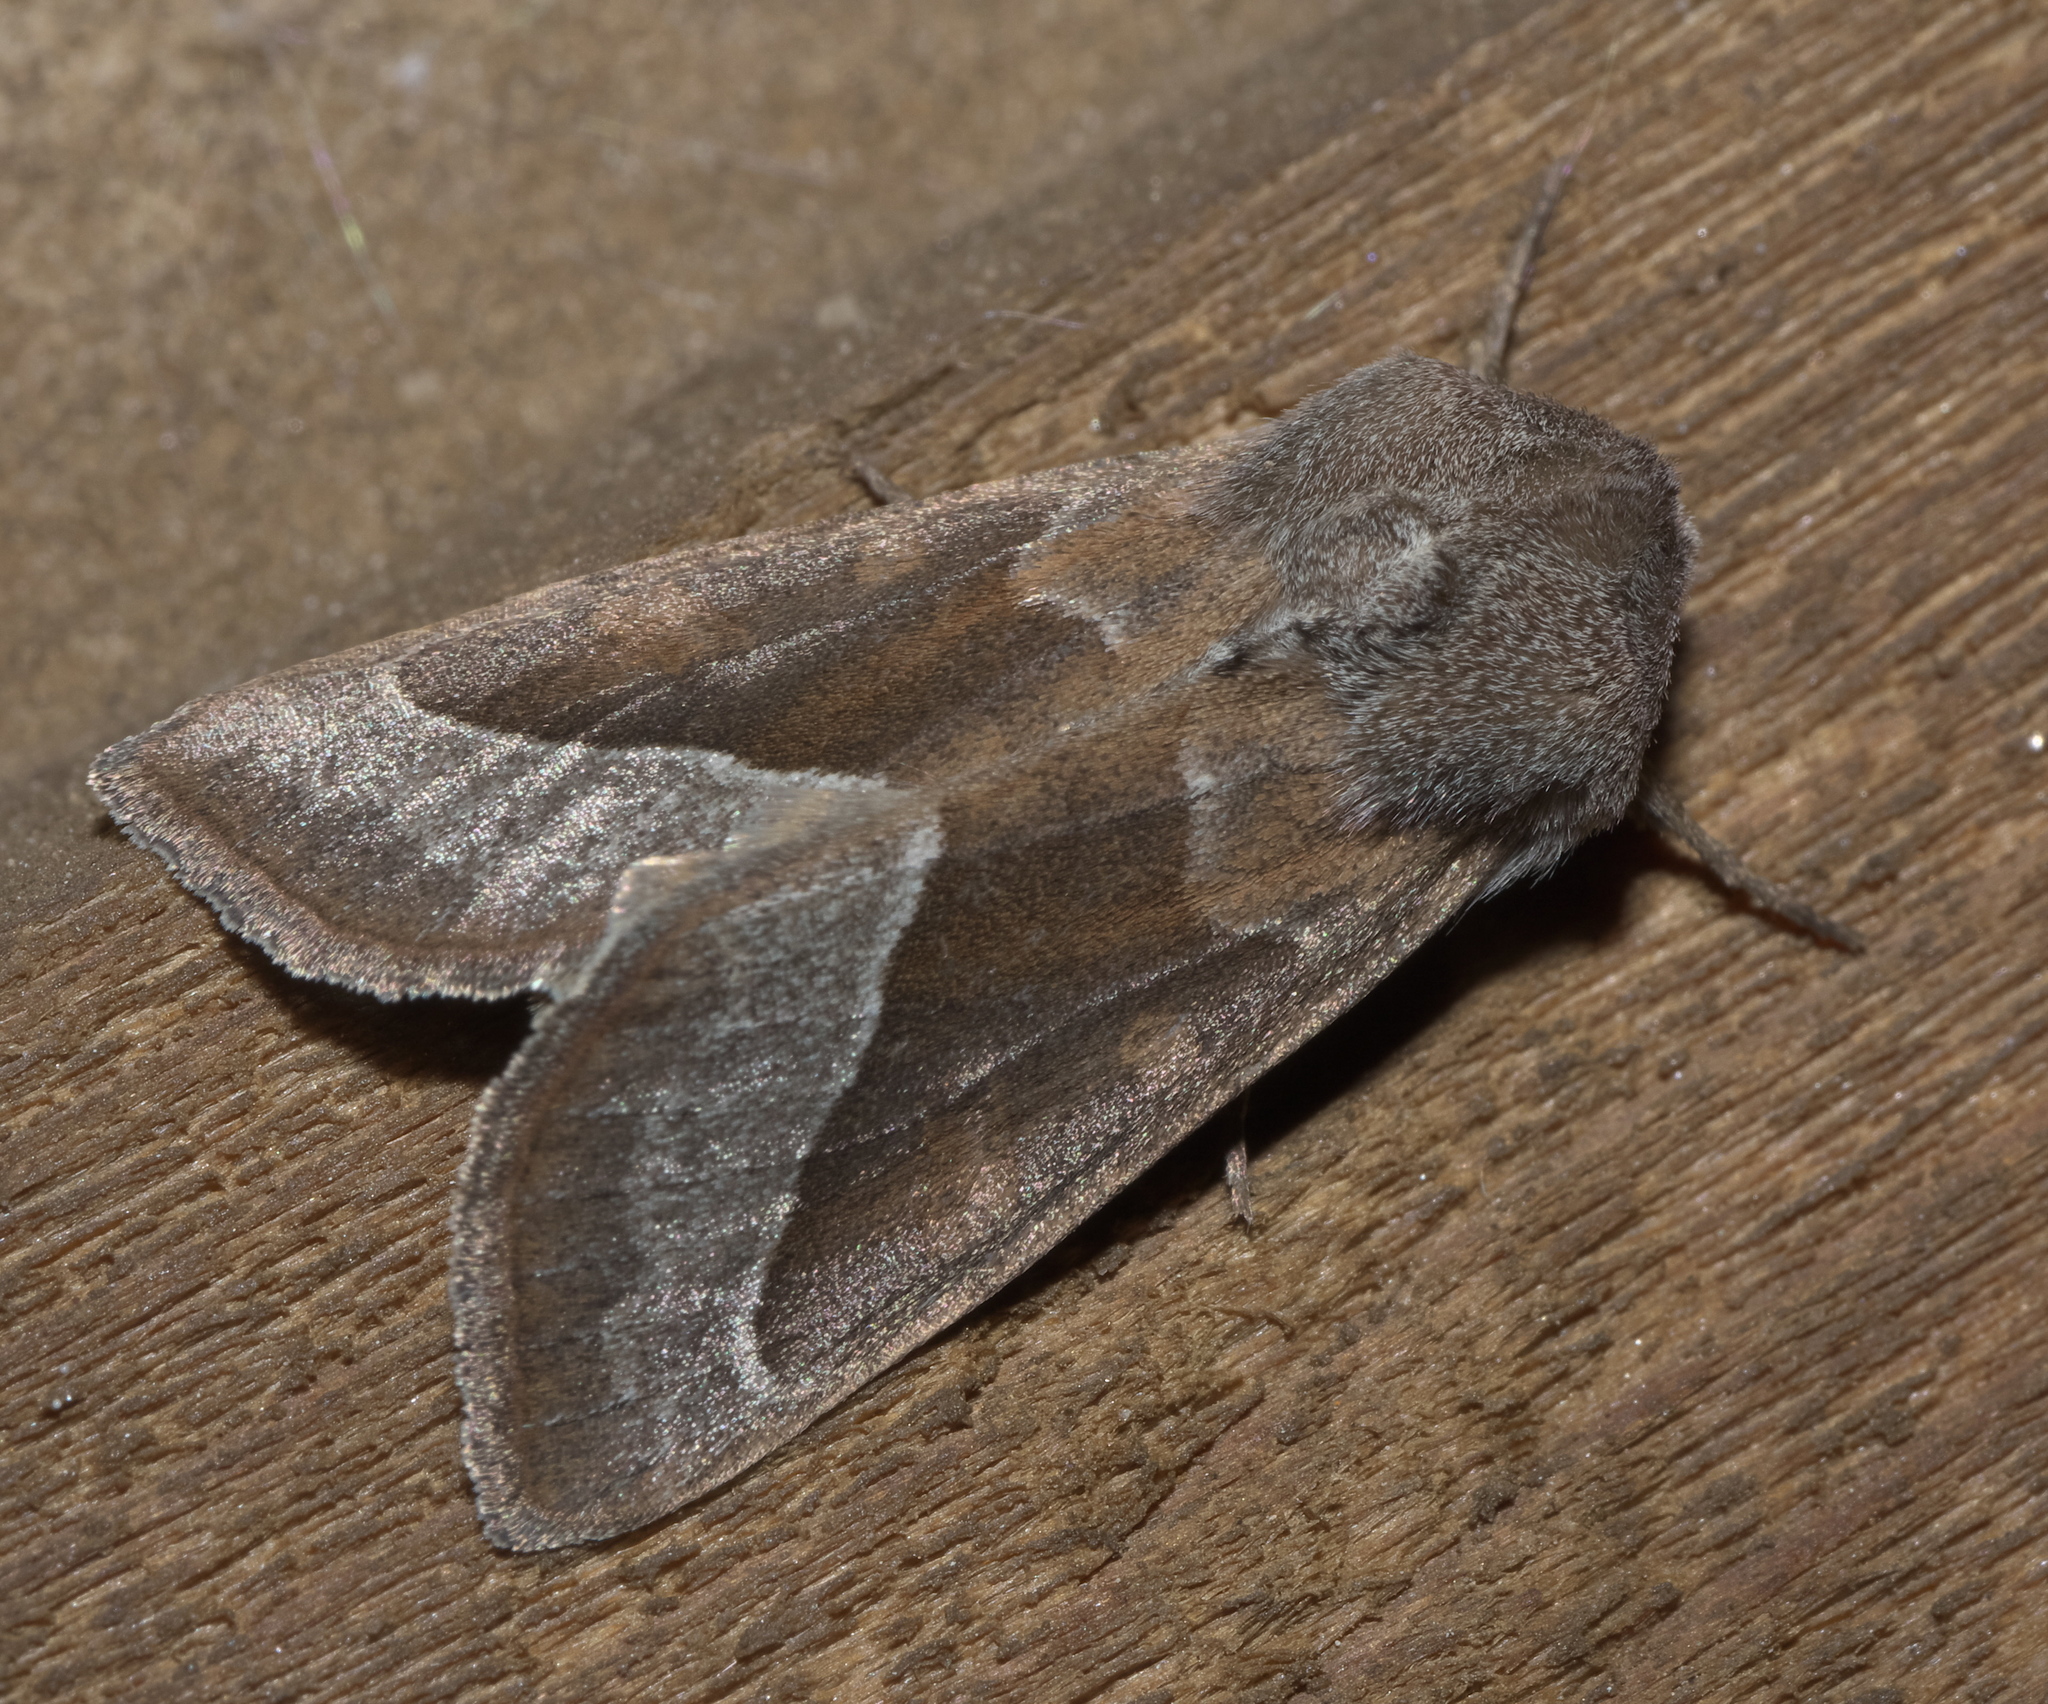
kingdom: Animalia
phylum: Arthropoda
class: Insecta
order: Lepidoptera
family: Noctuidae
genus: Hydraecia
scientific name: Hydraecia medialis
